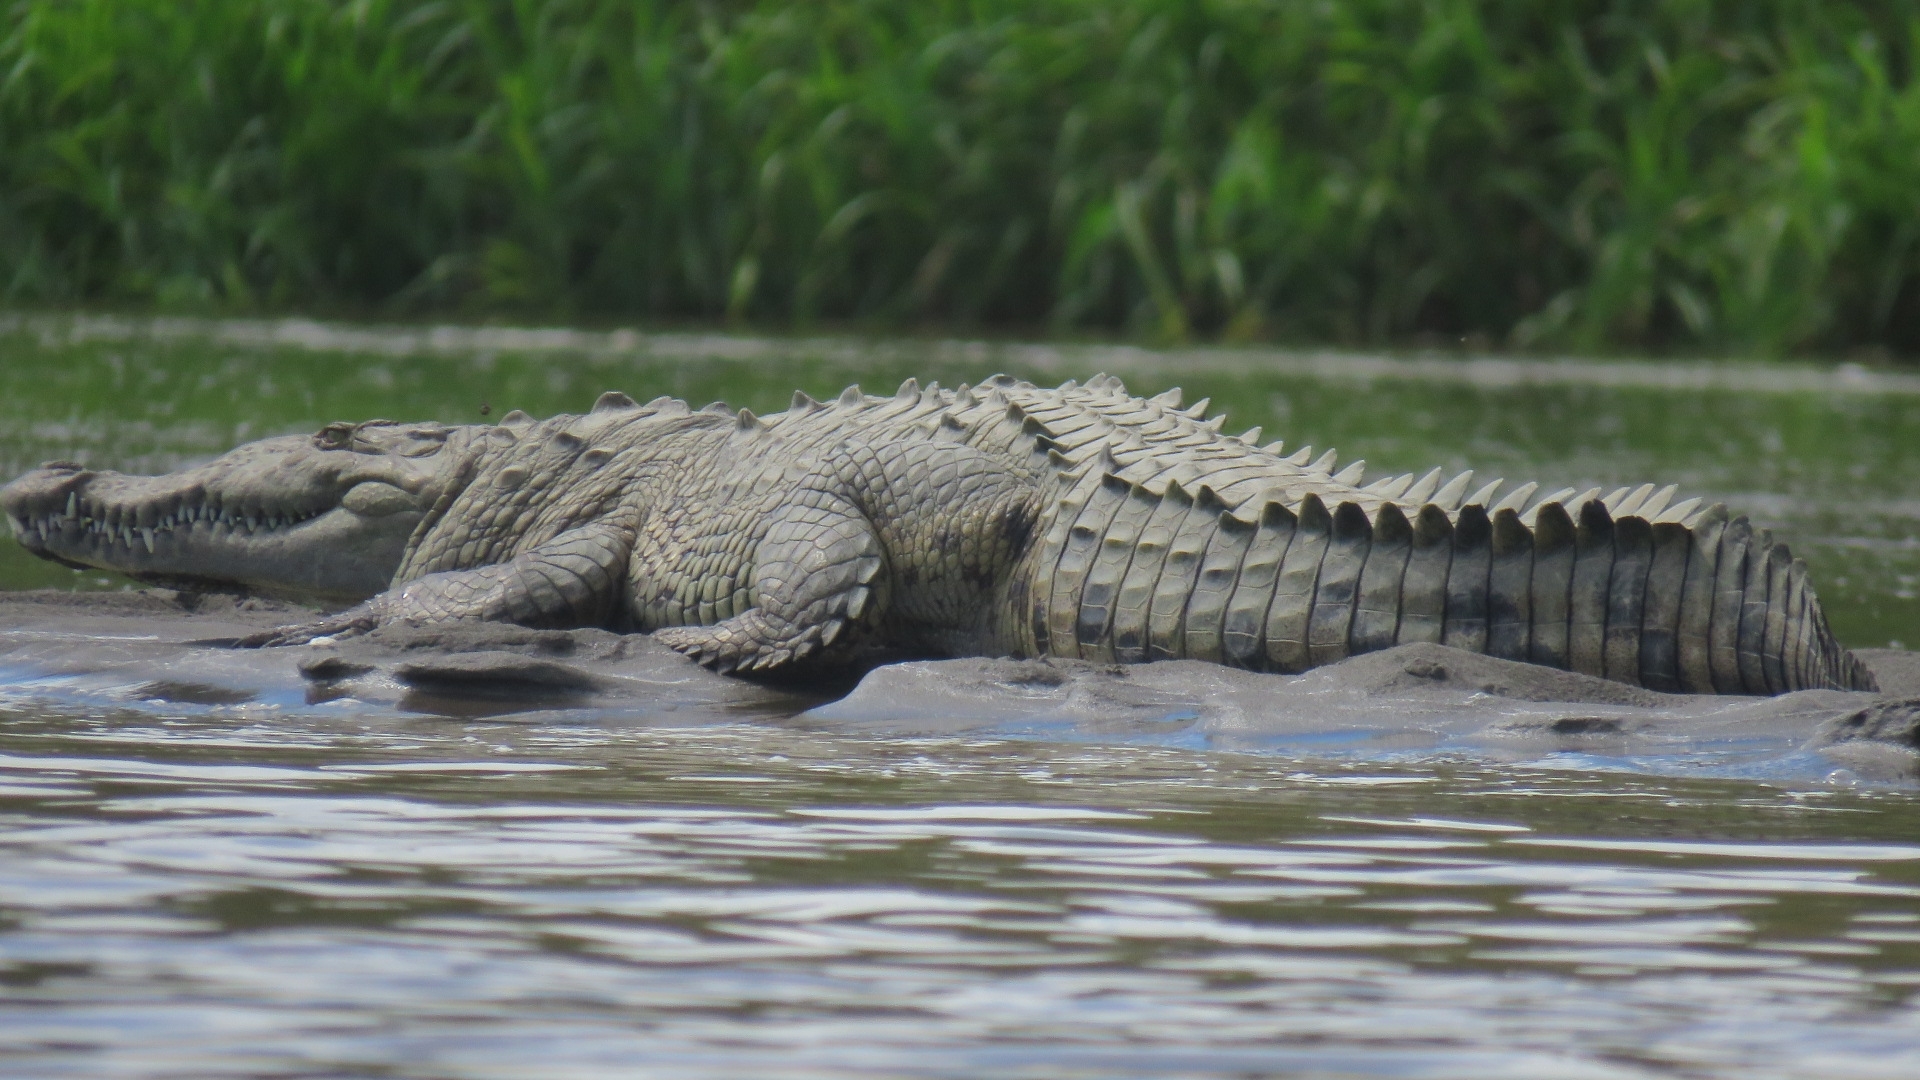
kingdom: Animalia
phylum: Chordata
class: Crocodylia
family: Crocodylidae
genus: Crocodylus
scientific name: Crocodylus acutus
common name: American crocodile
